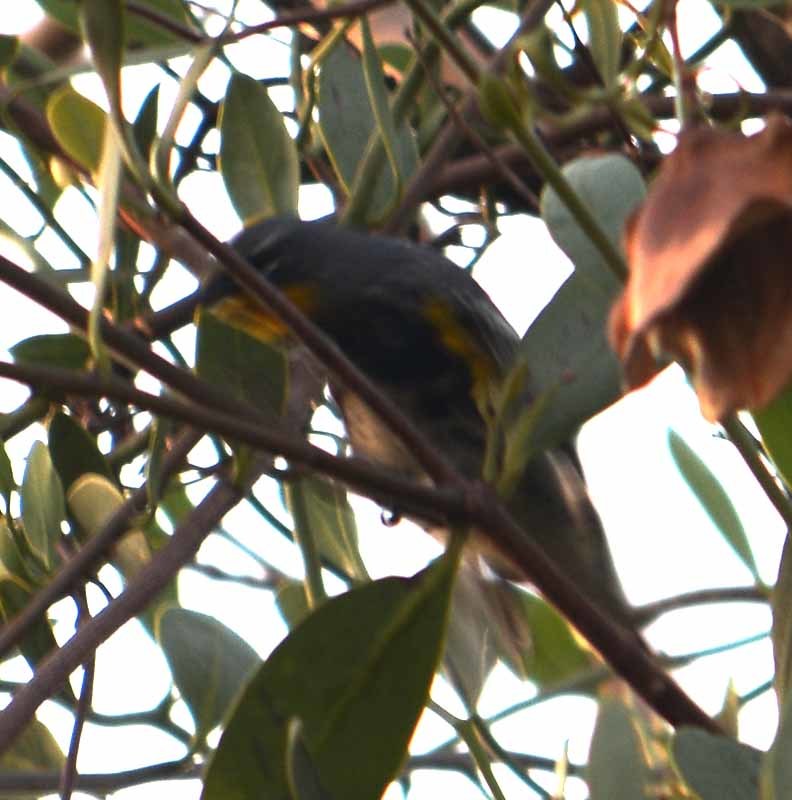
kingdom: Animalia
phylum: Chordata
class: Aves
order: Passeriformes
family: Parulidae
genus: Setophaga
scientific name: Setophaga auduboni
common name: Audubon's warbler
